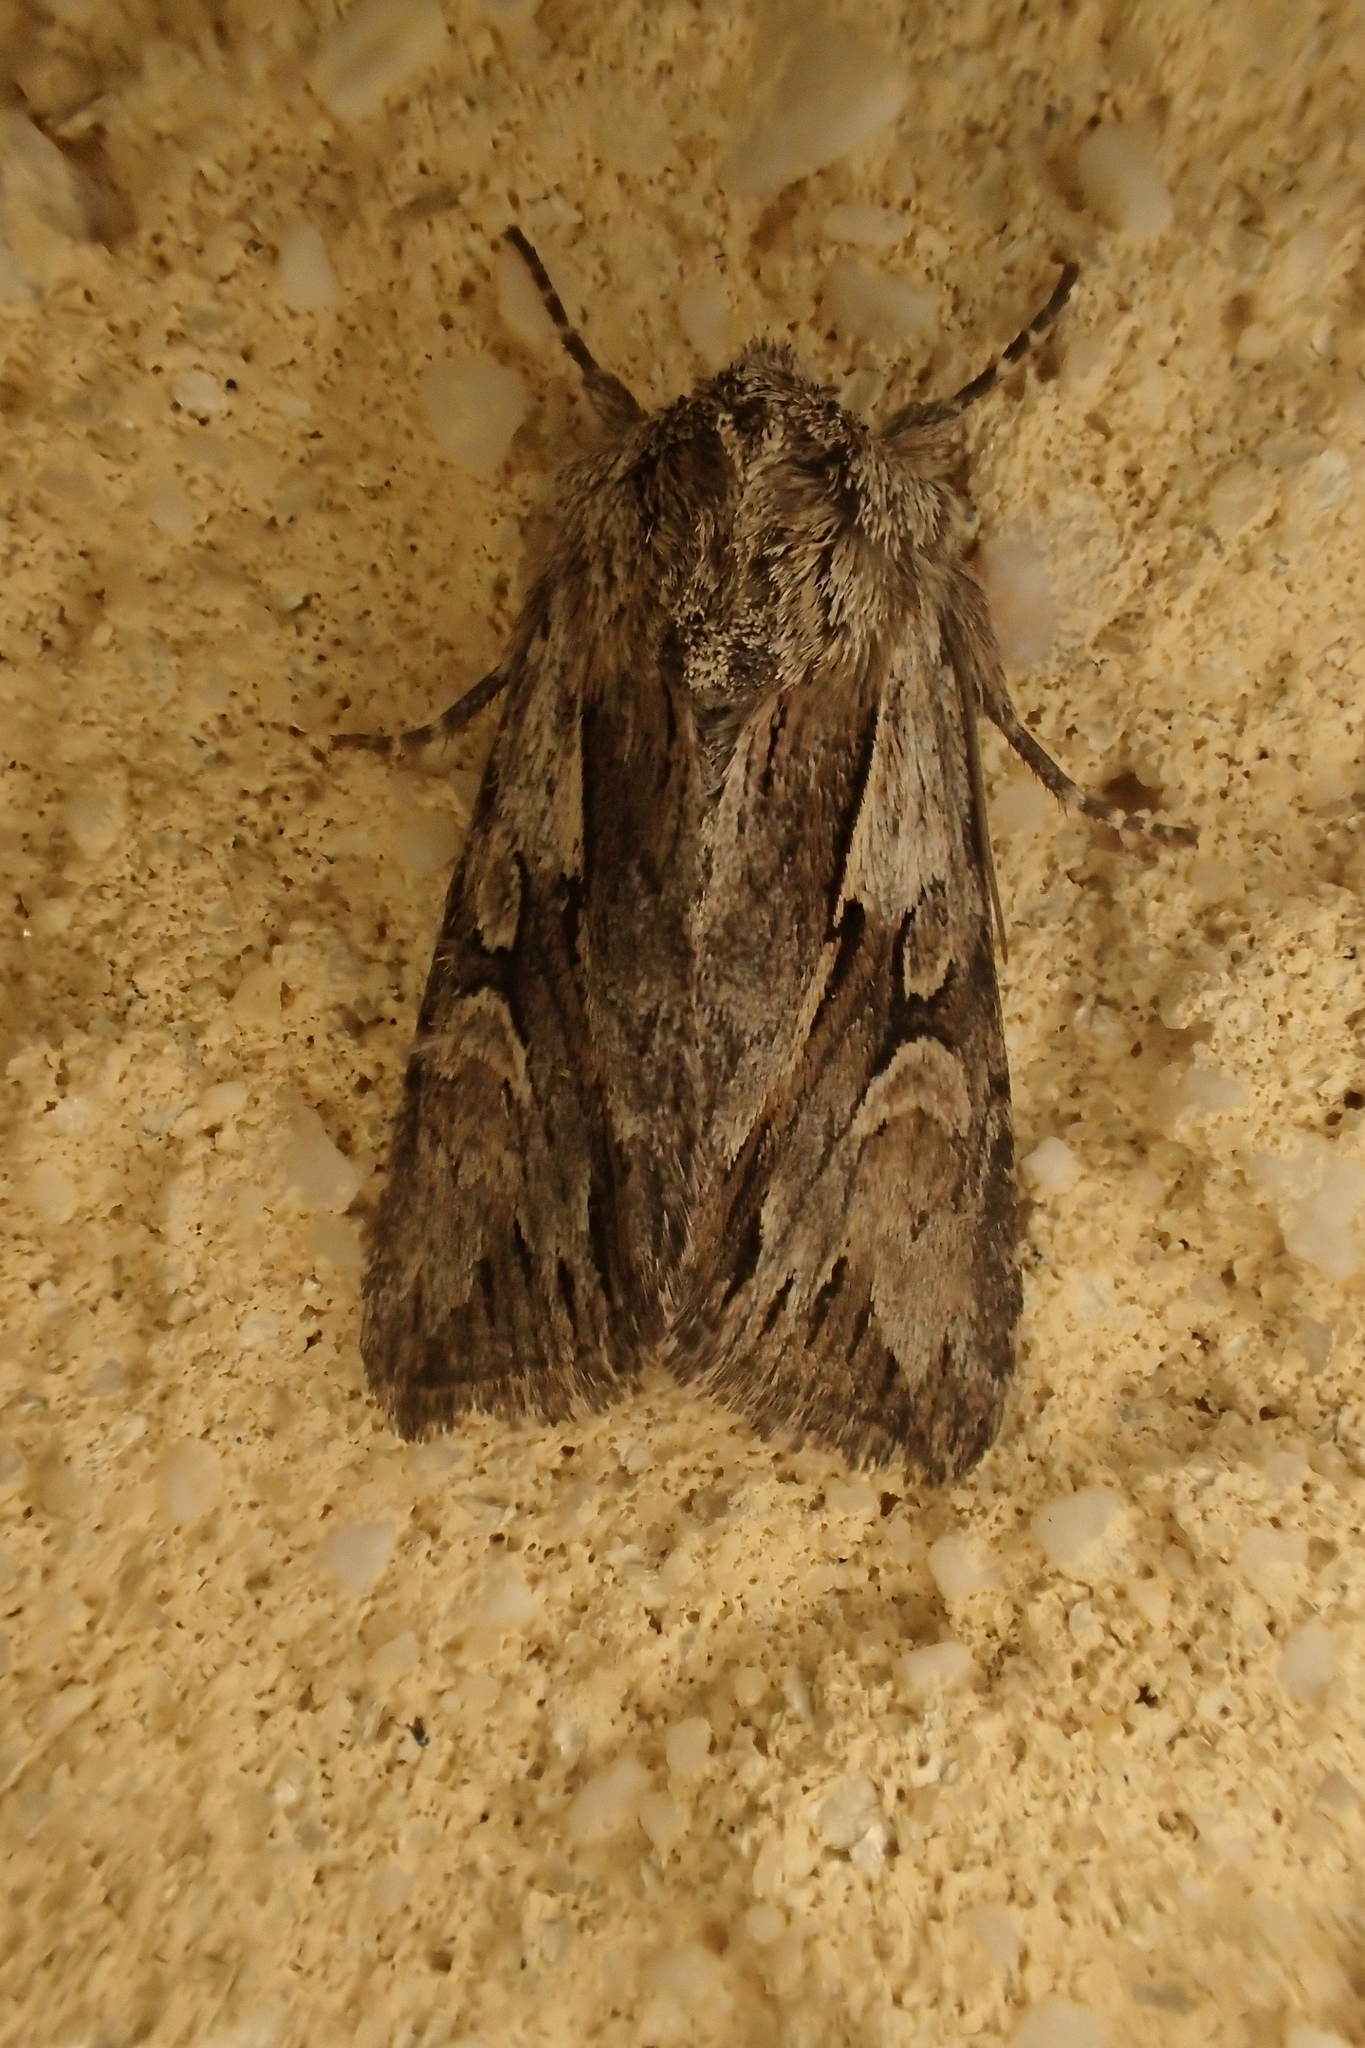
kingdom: Animalia
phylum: Arthropoda
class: Insecta
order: Lepidoptera
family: Noctuidae
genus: Chloantha
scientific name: Chloantha hyperici
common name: Pale-shouldered cloud
